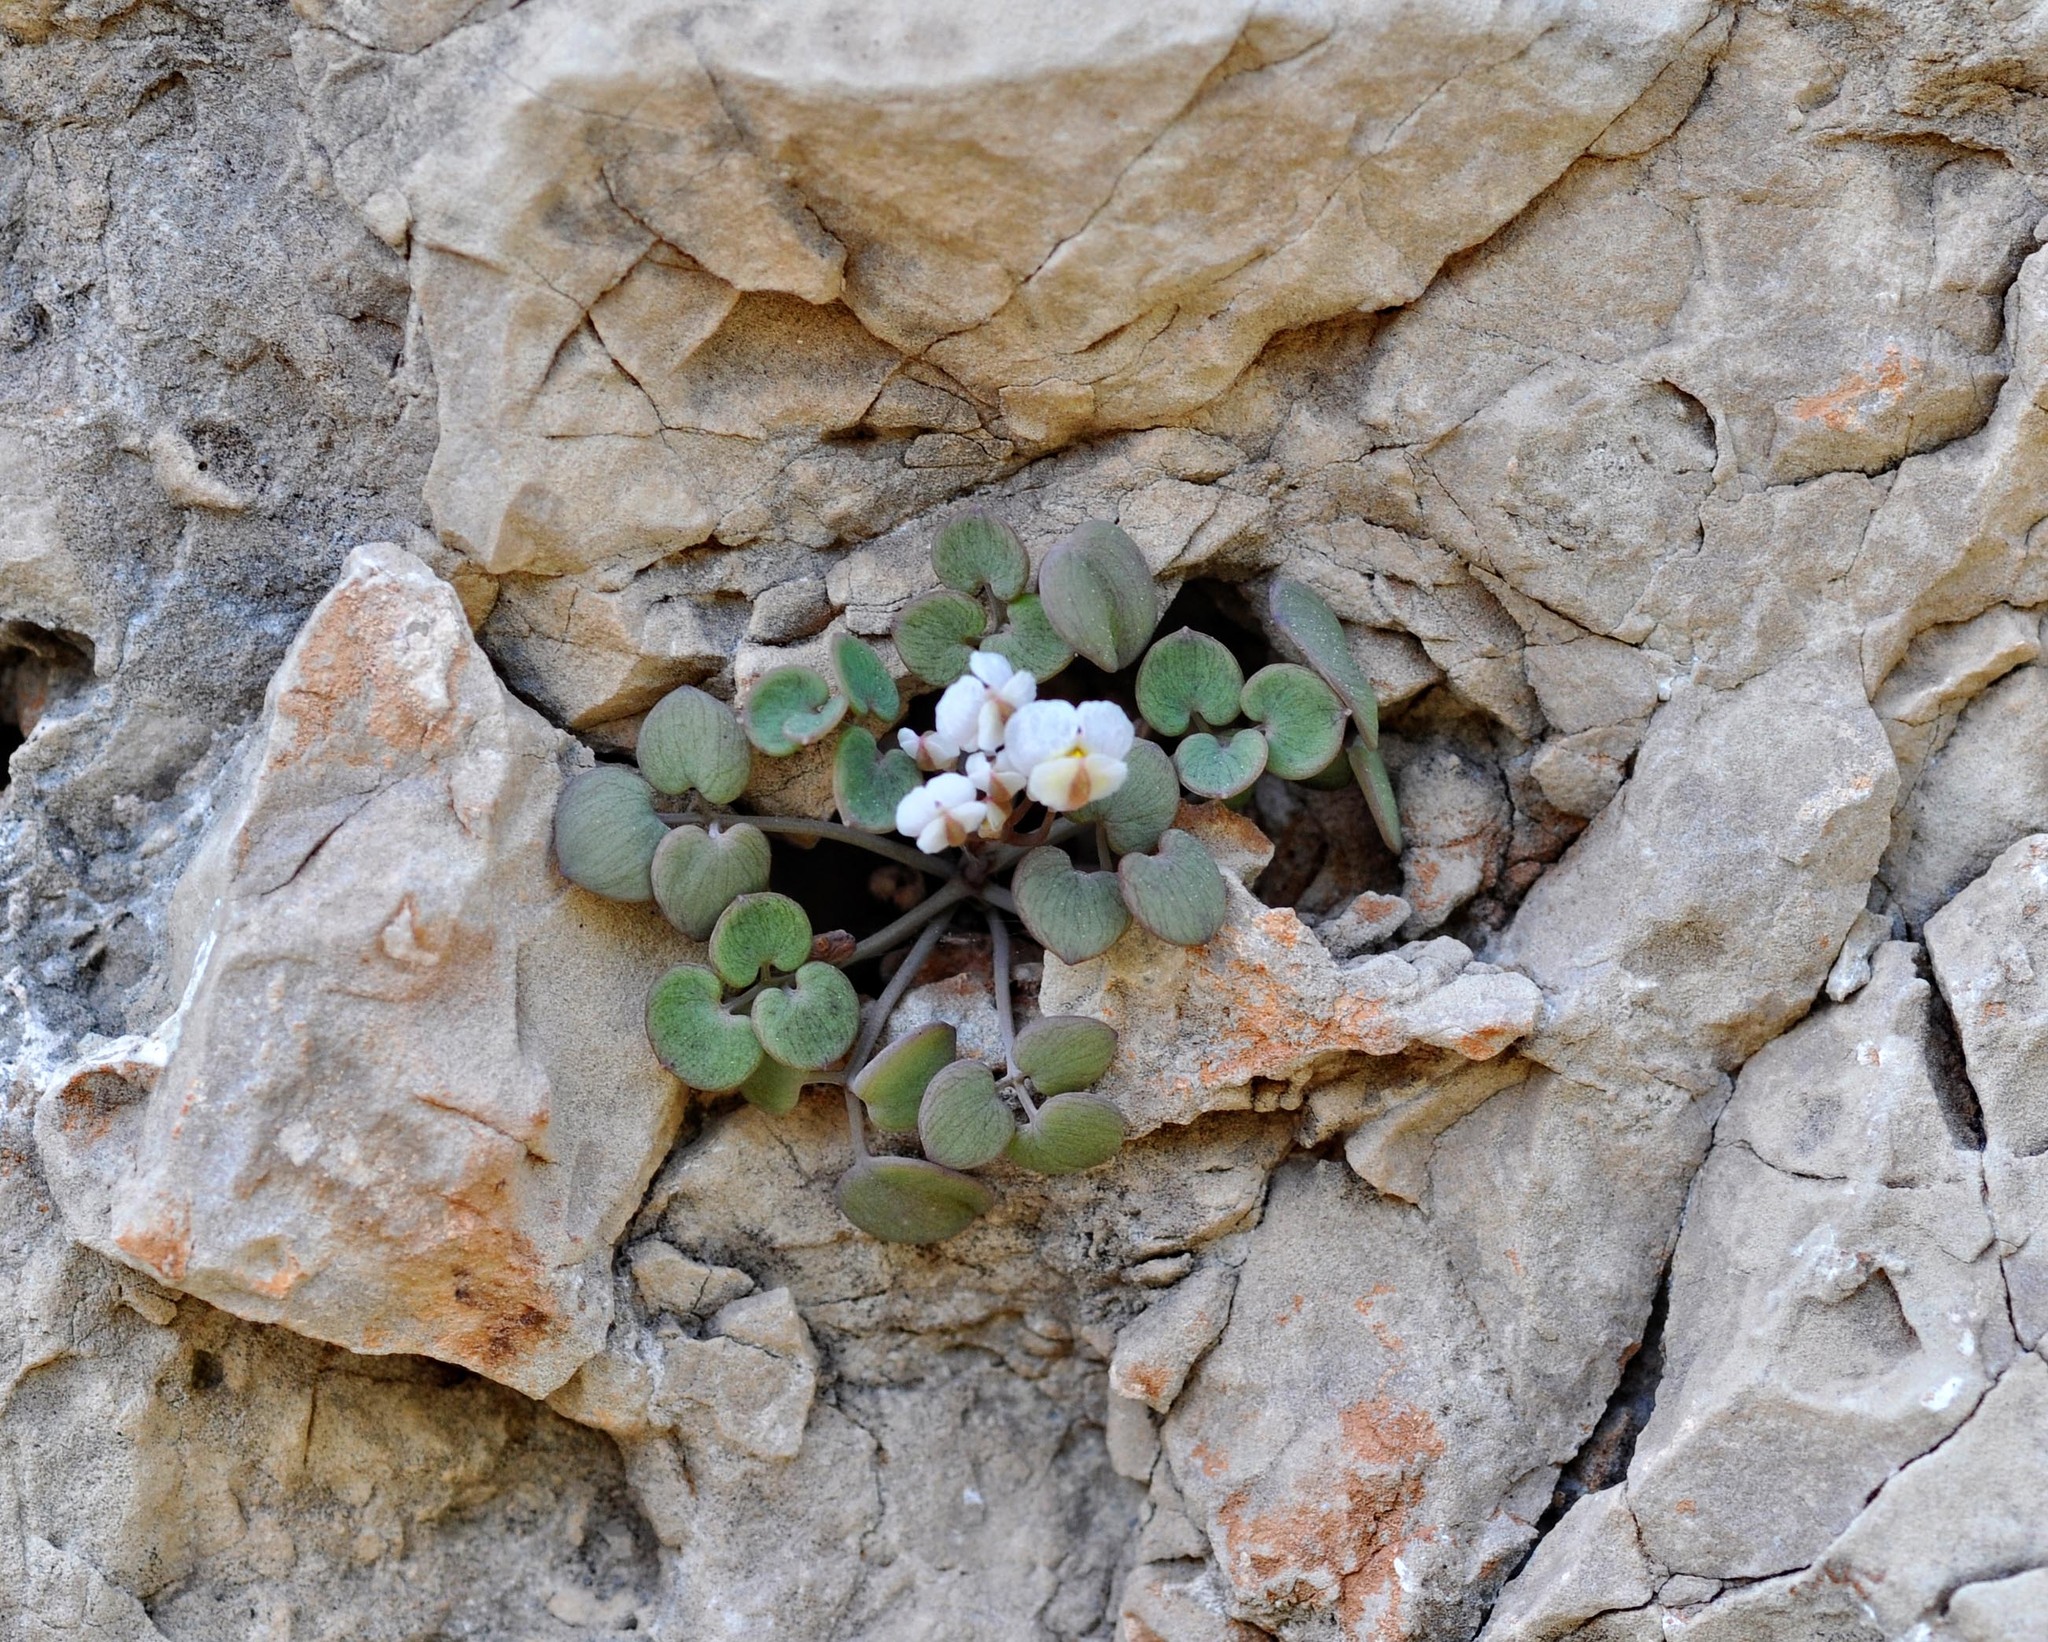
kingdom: Plantae
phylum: Tracheophyta
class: Magnoliopsida
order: Ranunculales
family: Papaveraceae
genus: Sarcocapnos
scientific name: Sarcocapnos enneaphylla
